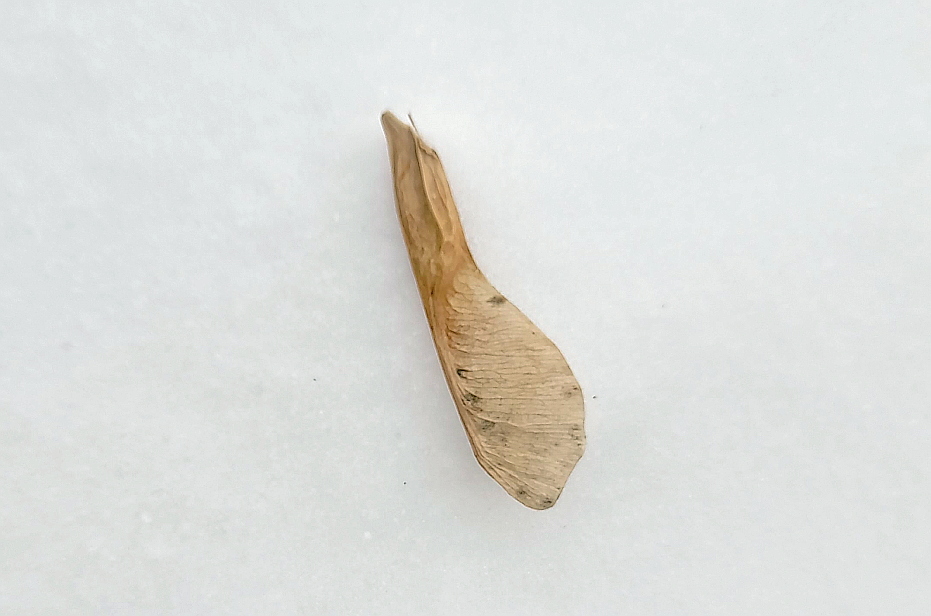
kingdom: Plantae
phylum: Tracheophyta
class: Magnoliopsida
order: Sapindales
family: Sapindaceae
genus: Acer
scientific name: Acer negundo
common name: Ashleaf maple
